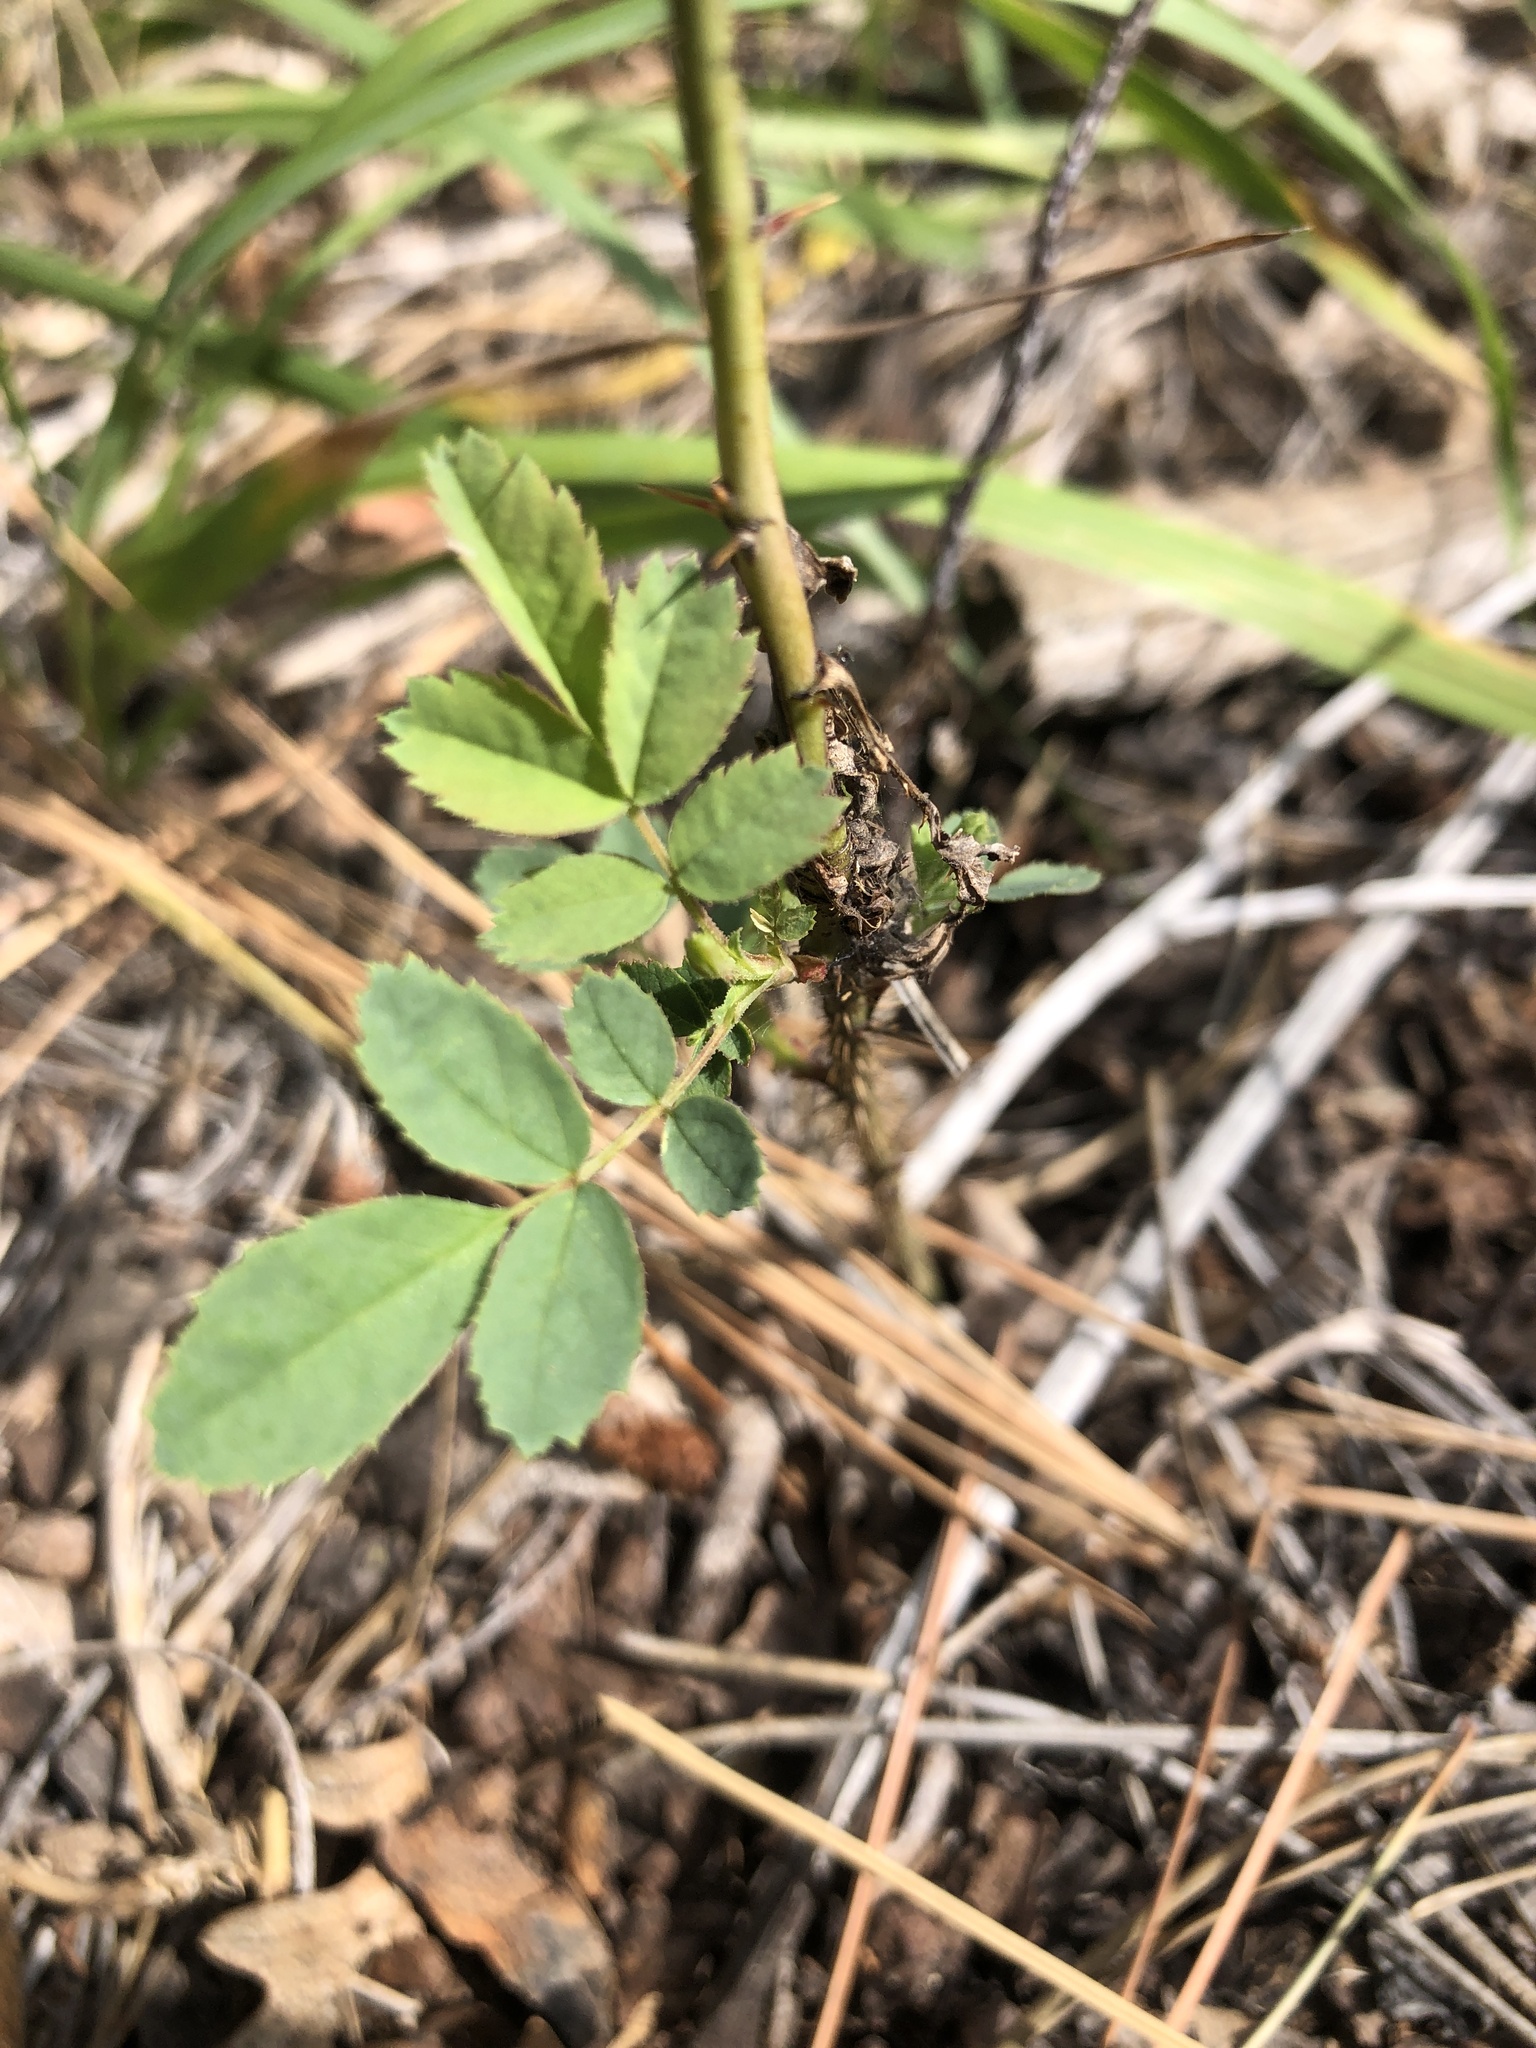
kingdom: Plantae
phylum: Tracheophyta
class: Magnoliopsida
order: Rosales
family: Rosaceae
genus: Rosa
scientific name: Rosa woodsii
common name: Woods's rose
